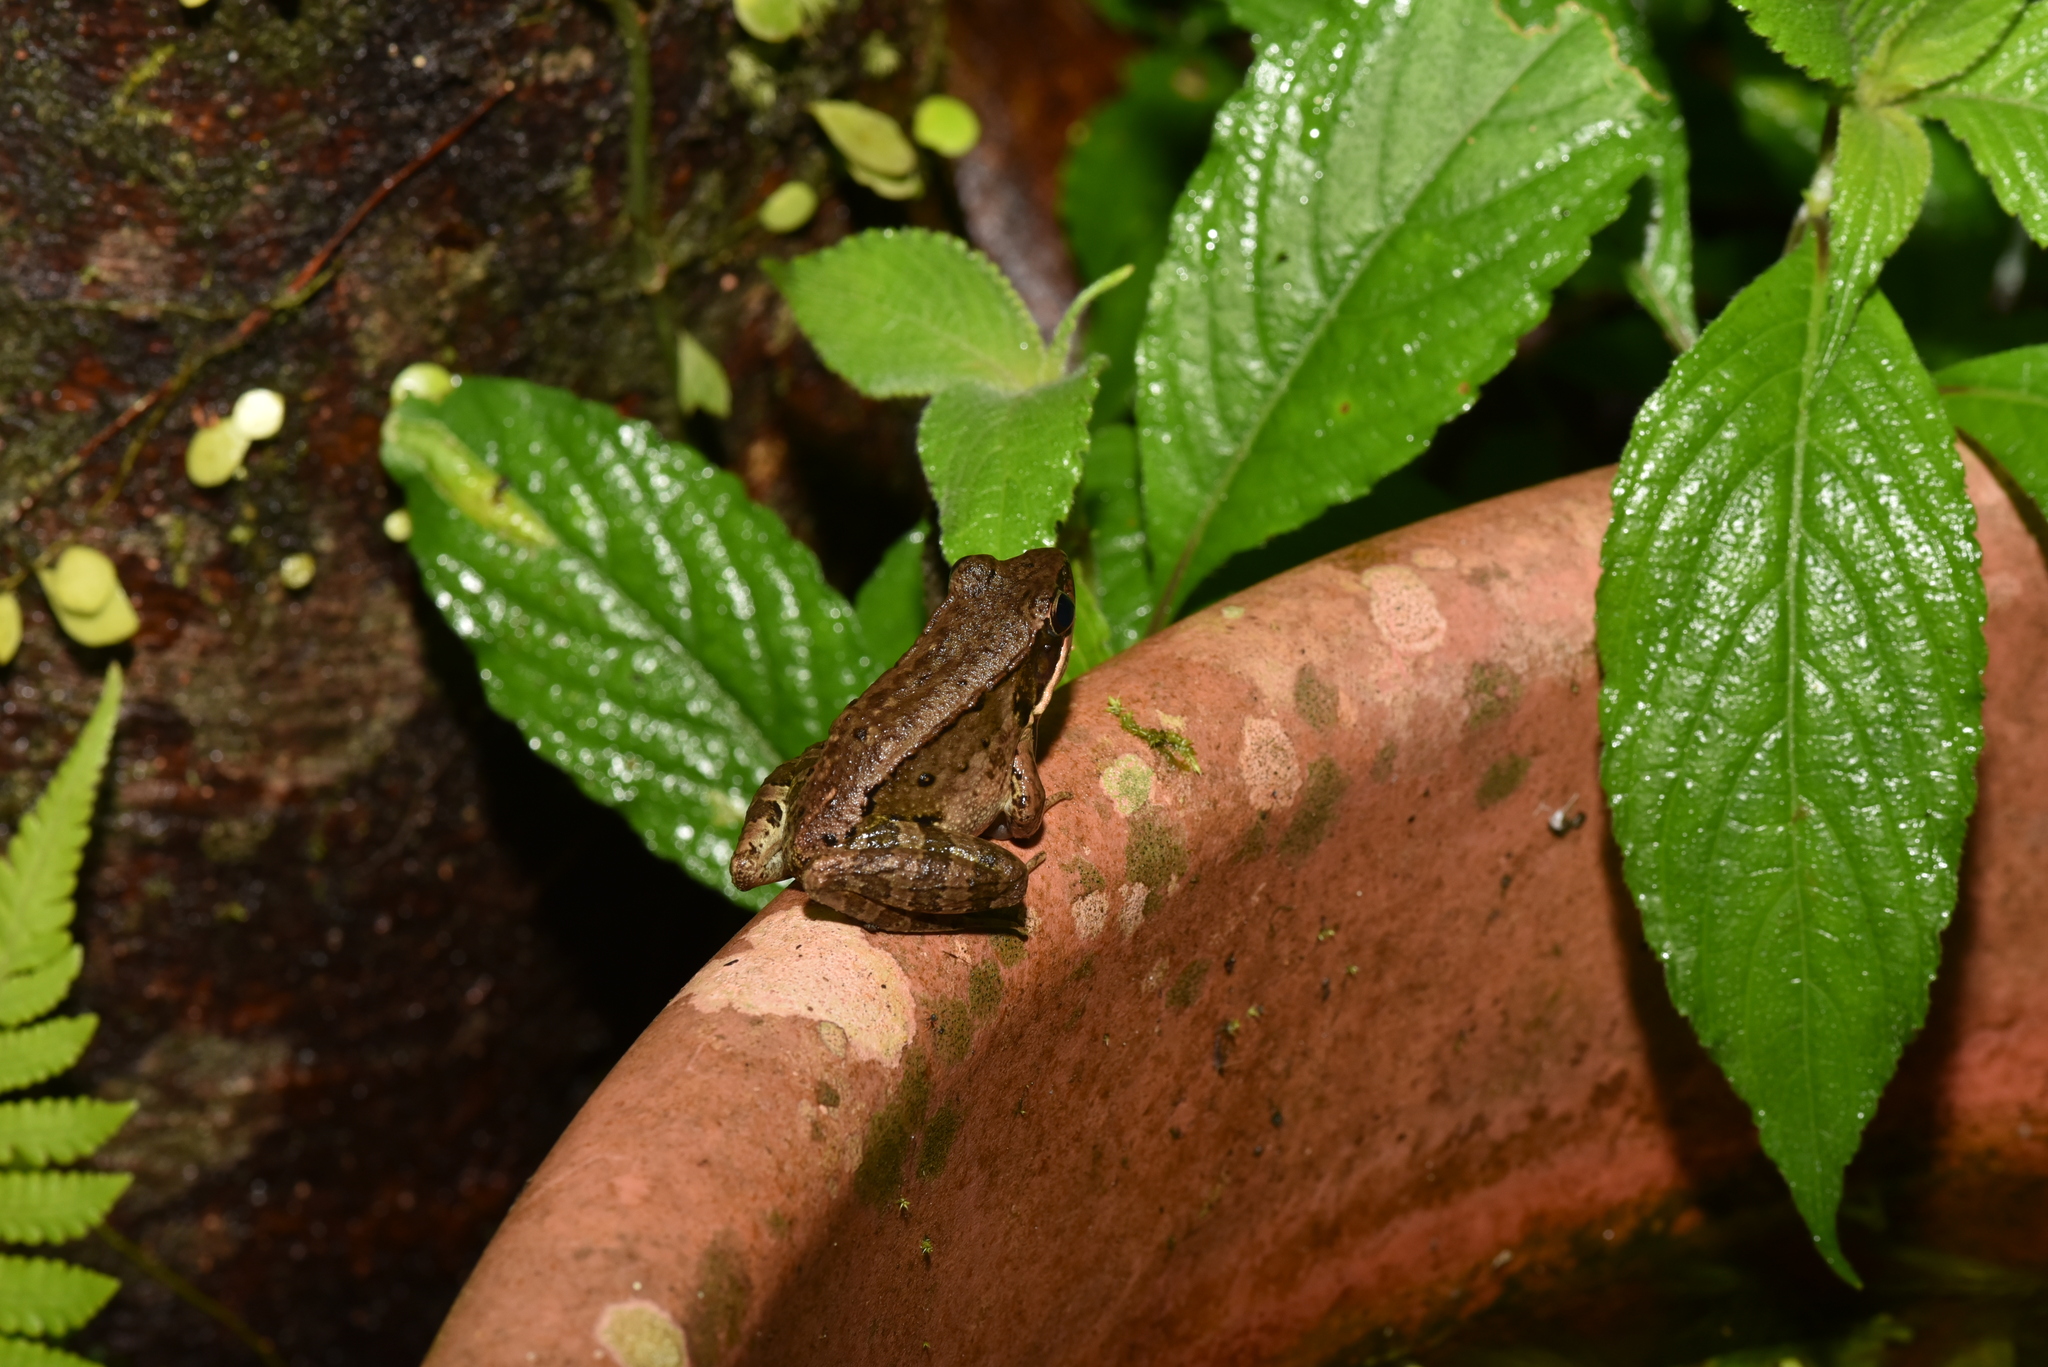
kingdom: Animalia
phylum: Chordata
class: Amphibia
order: Anura
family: Ranidae
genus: Nidirana
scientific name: Nidirana adenopleura
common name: Olive frog
